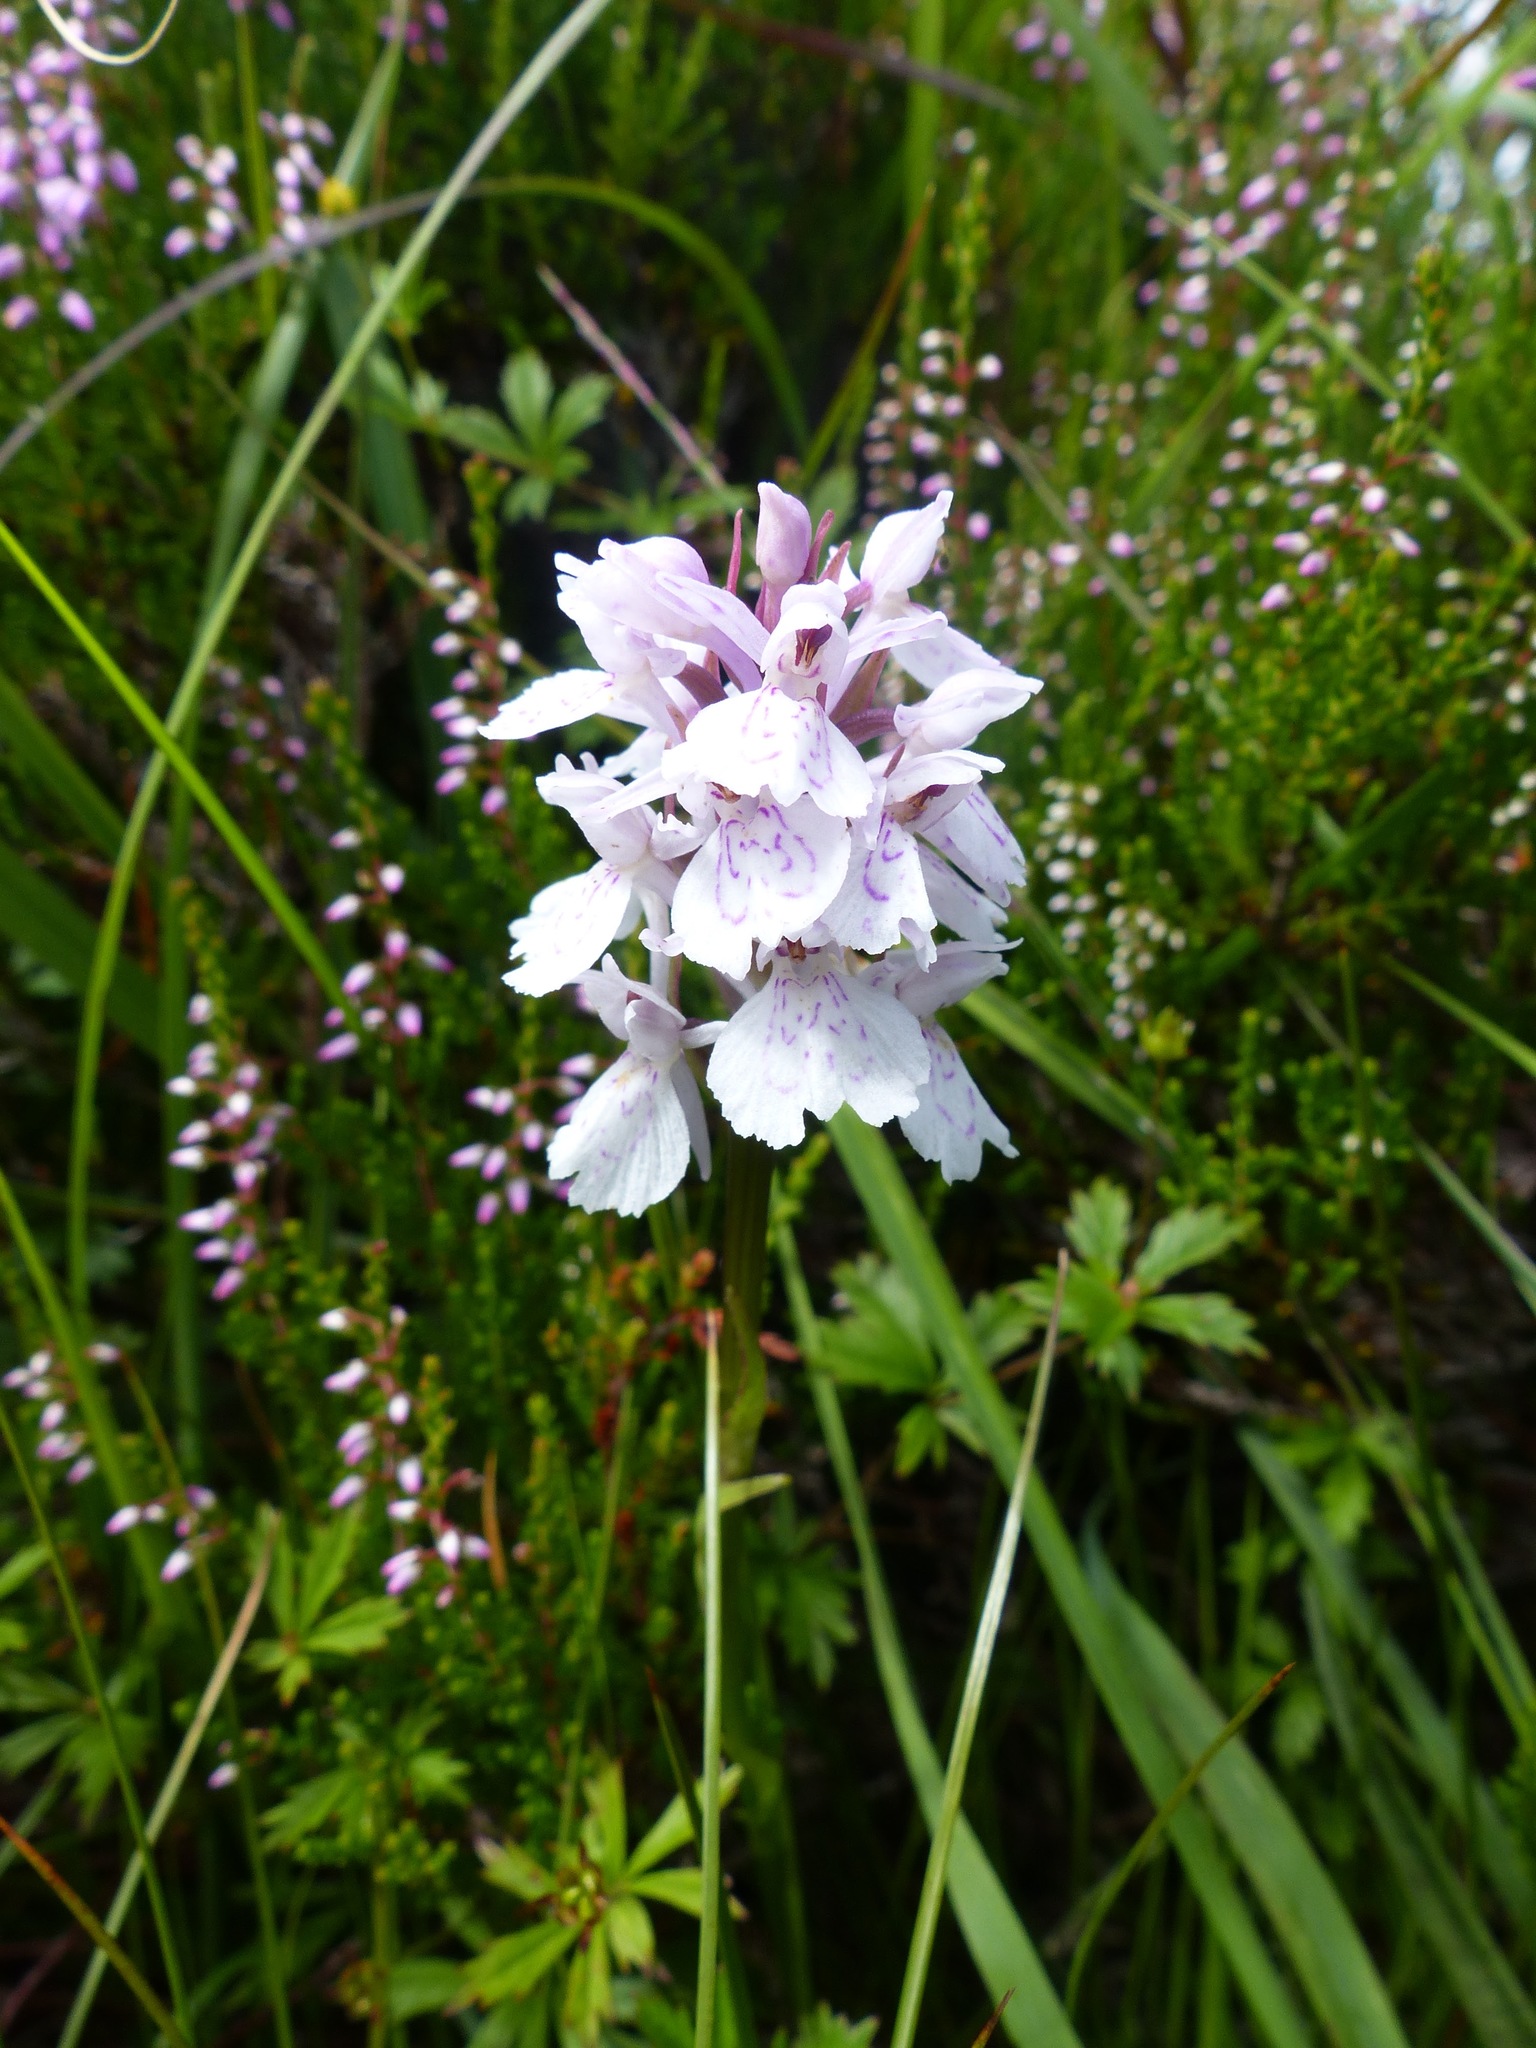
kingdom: Plantae
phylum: Tracheophyta
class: Liliopsida
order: Asparagales
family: Orchidaceae
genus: Dactylorhiza
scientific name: Dactylorhiza maculata
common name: Heath spotted-orchid
